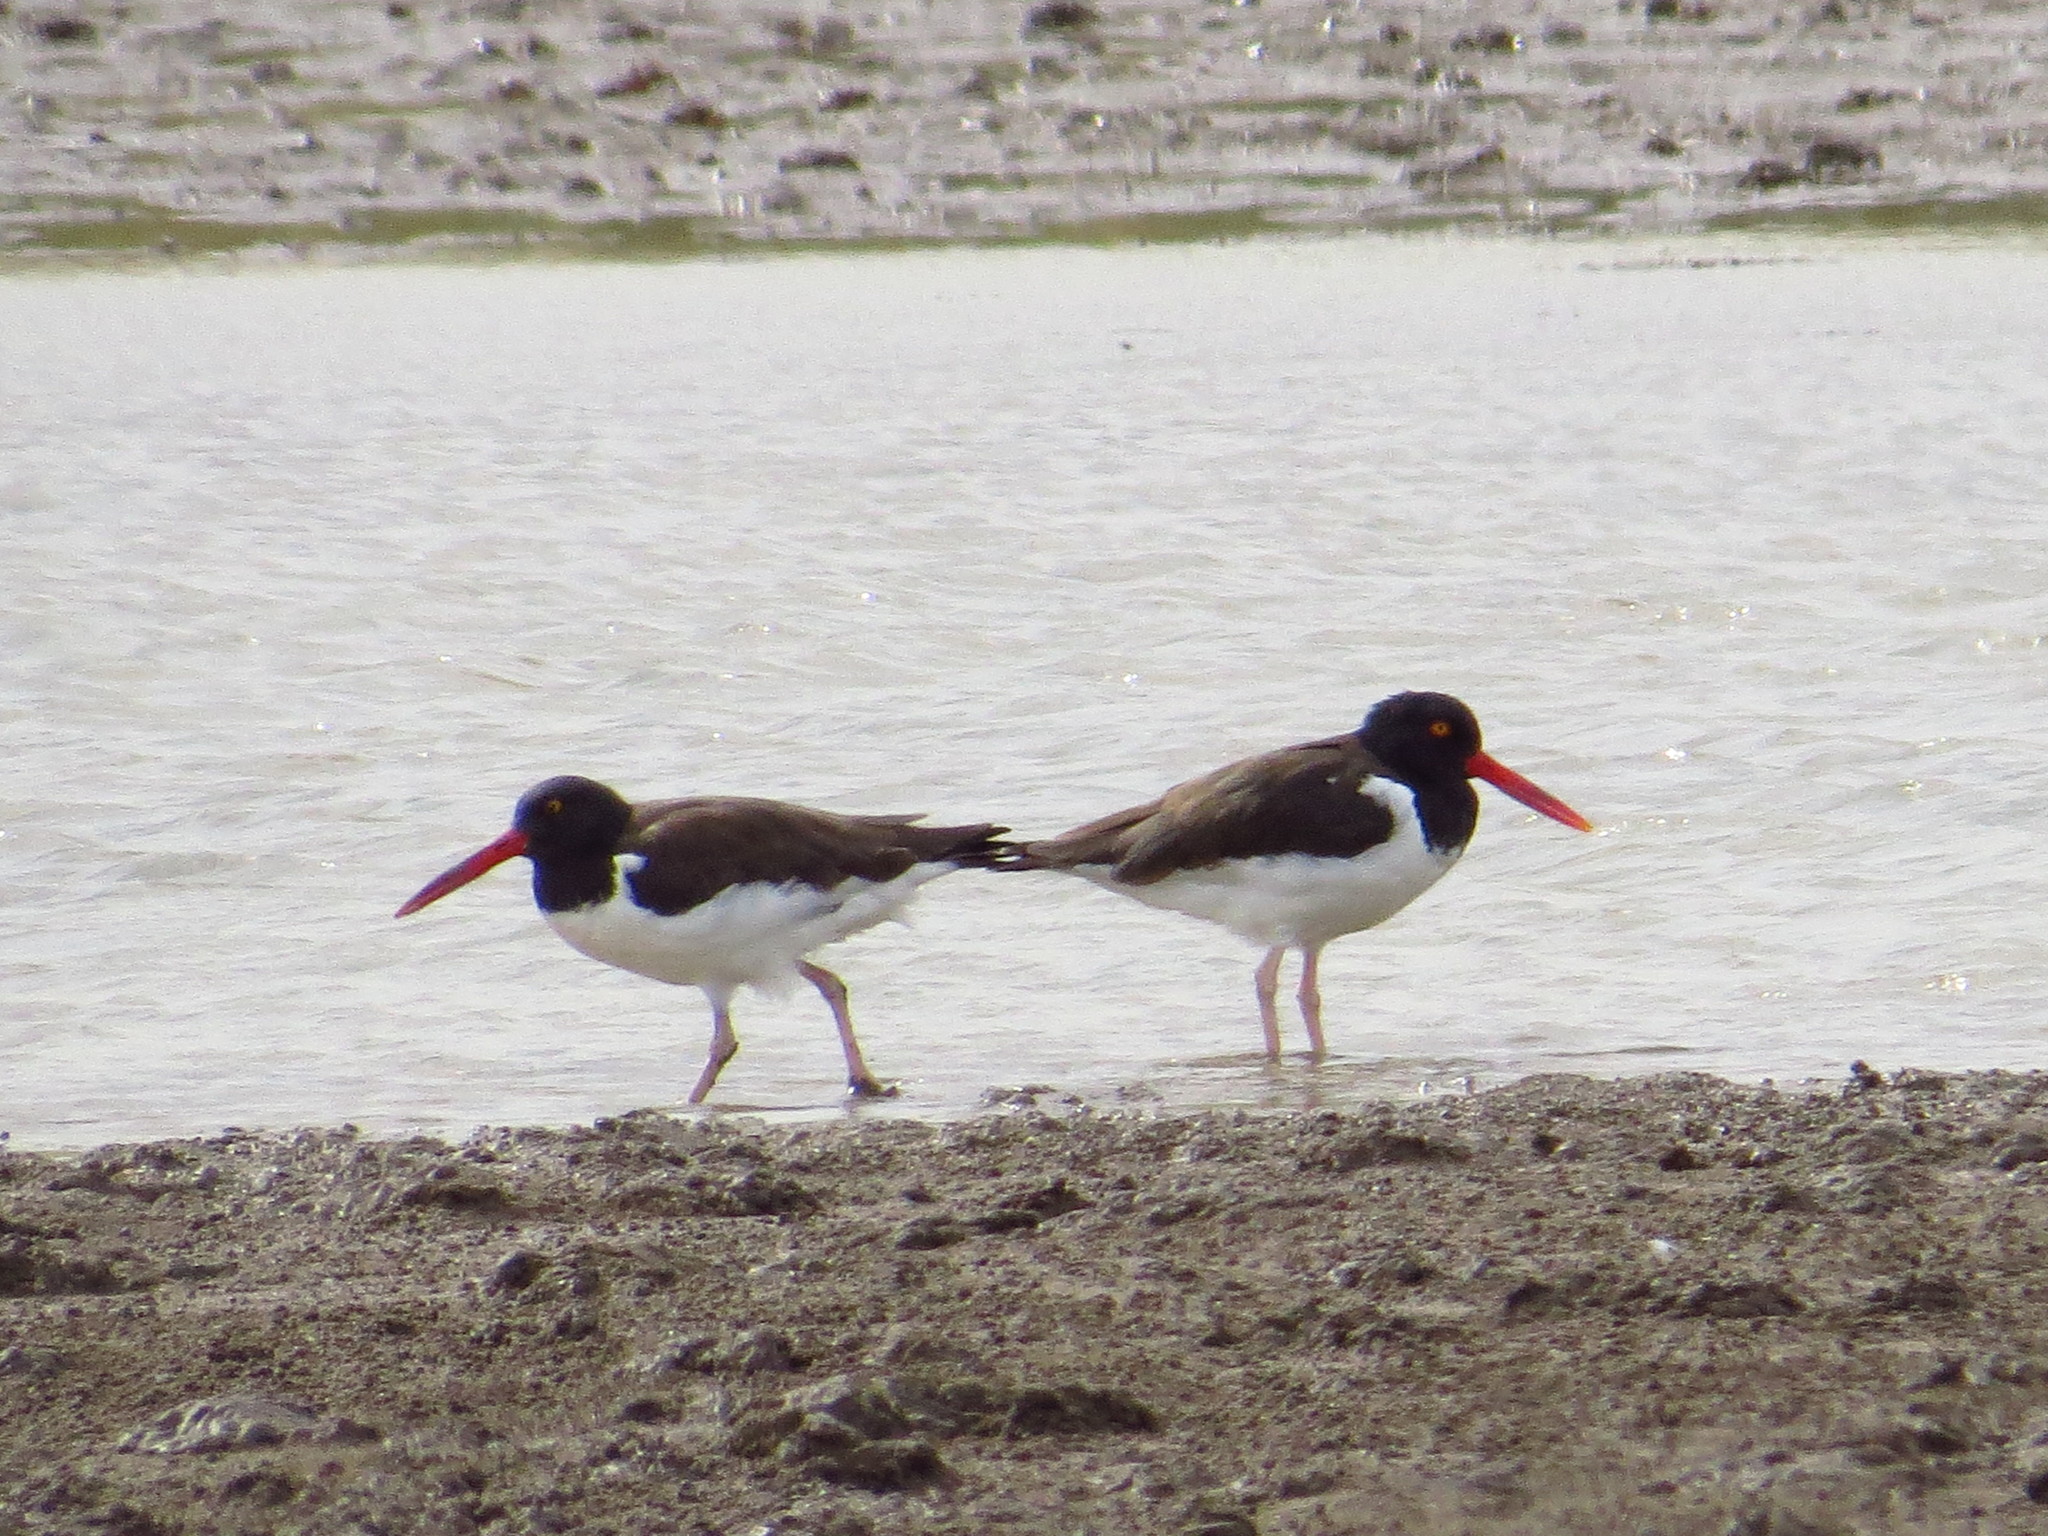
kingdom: Animalia
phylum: Chordata
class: Aves
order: Charadriiformes
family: Haematopodidae
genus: Haematopus
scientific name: Haematopus palliatus
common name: American oystercatcher
